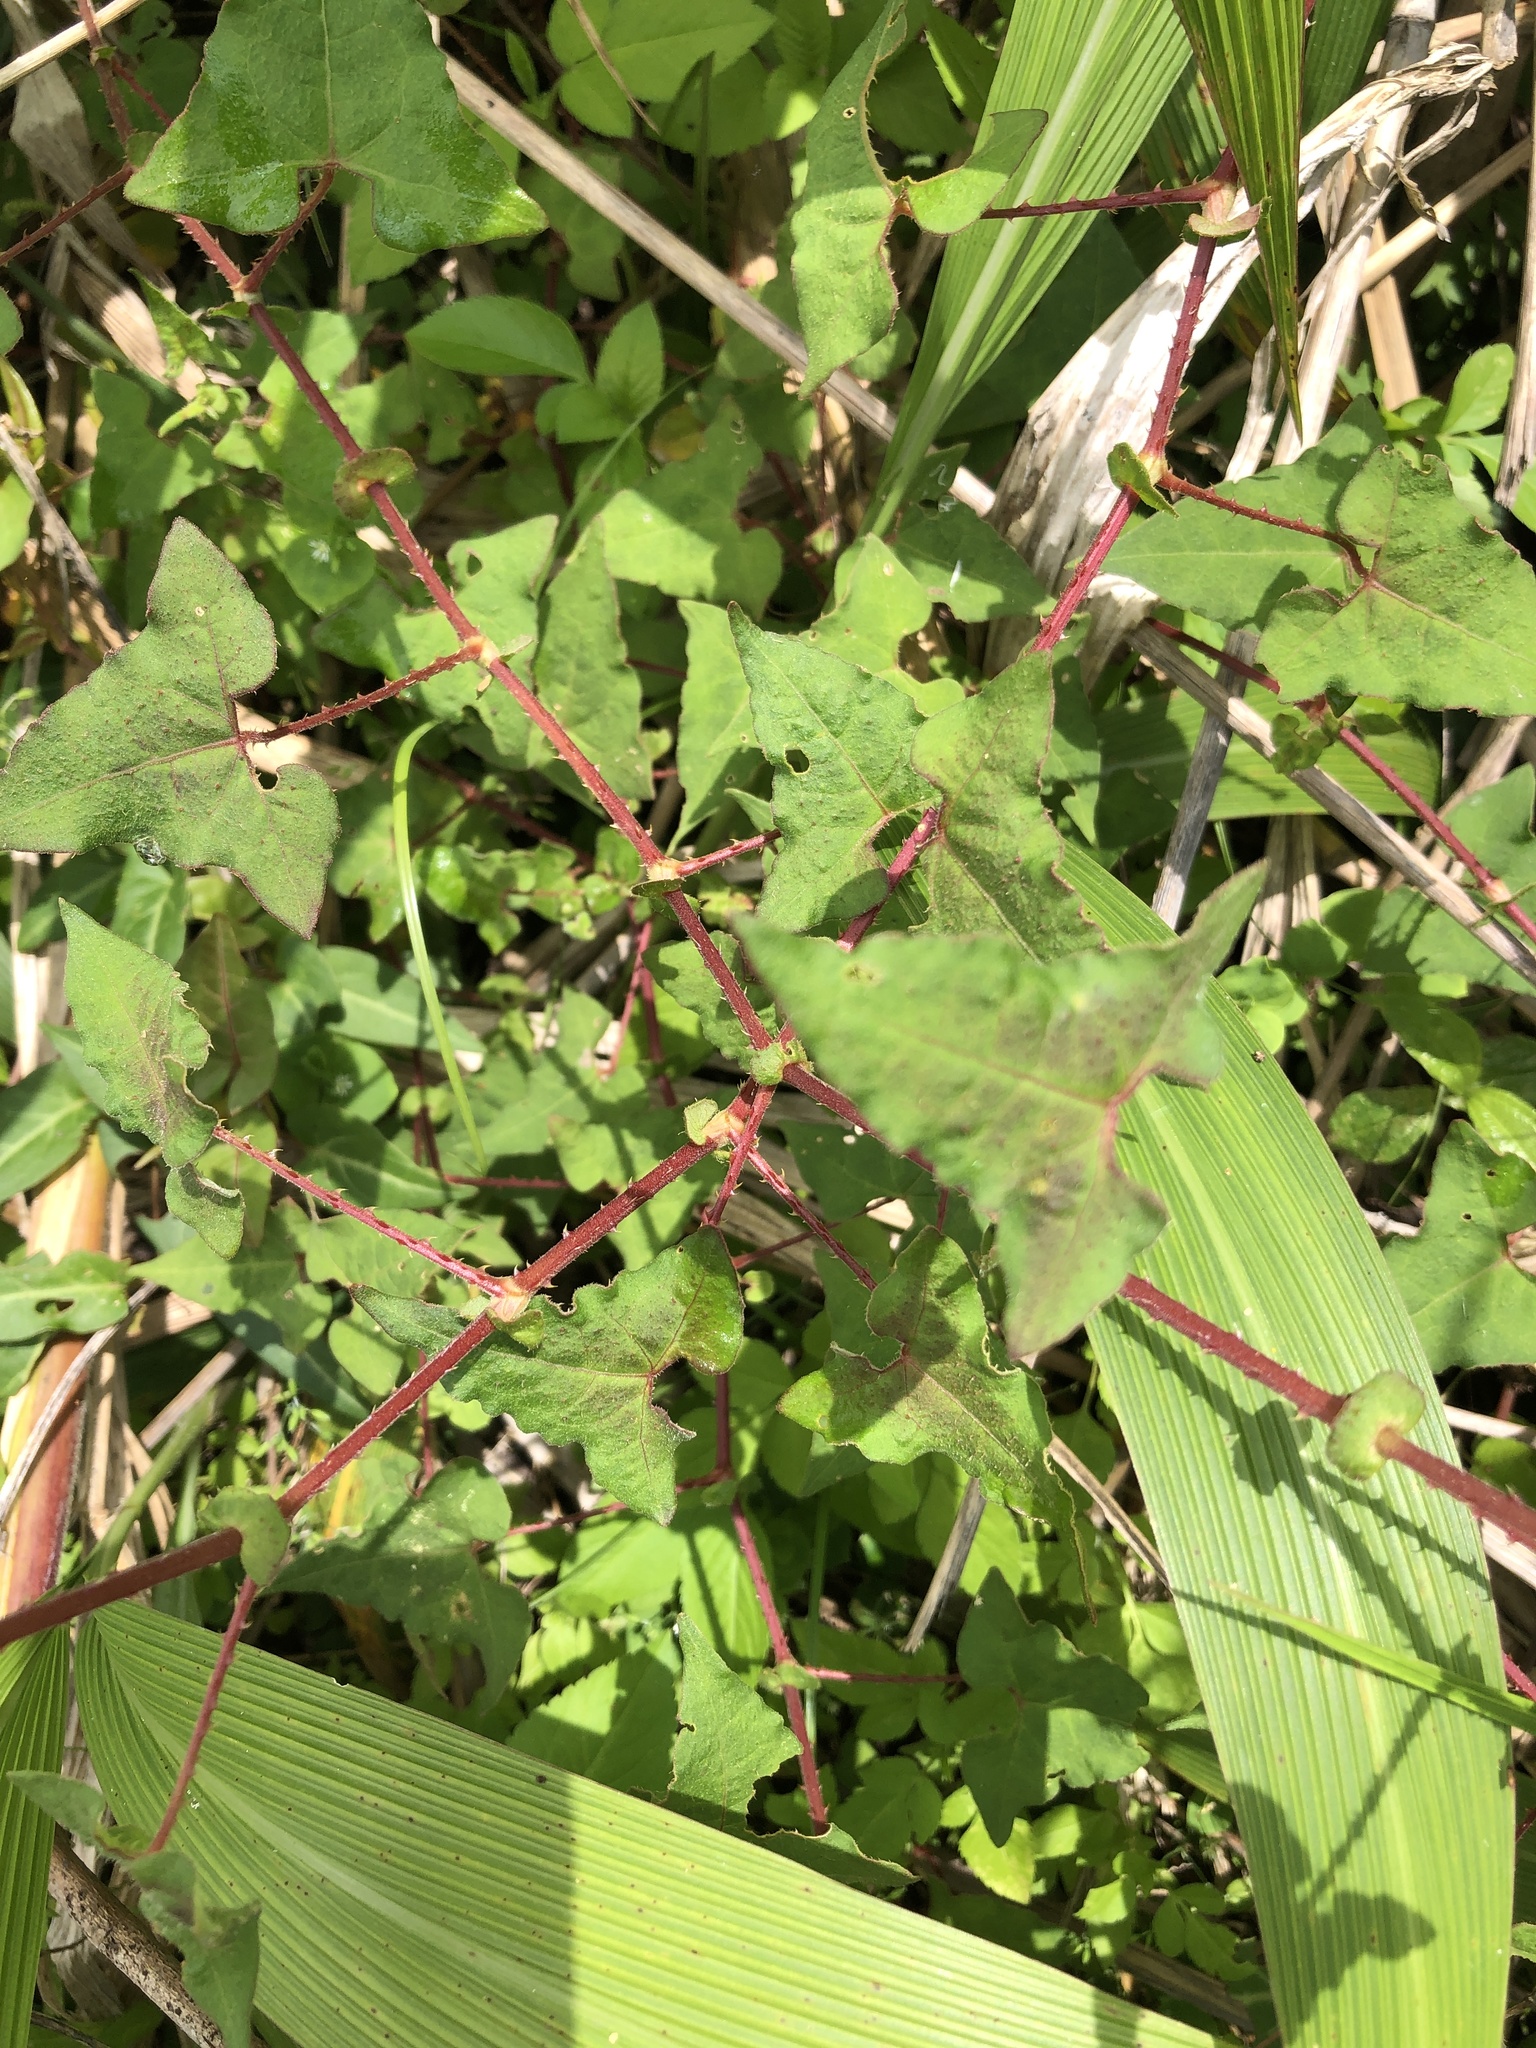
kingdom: Plantae
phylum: Tracheophyta
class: Magnoliopsida
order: Caryophyllales
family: Polygonaceae
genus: Persicaria
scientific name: Persicaria senticosa
